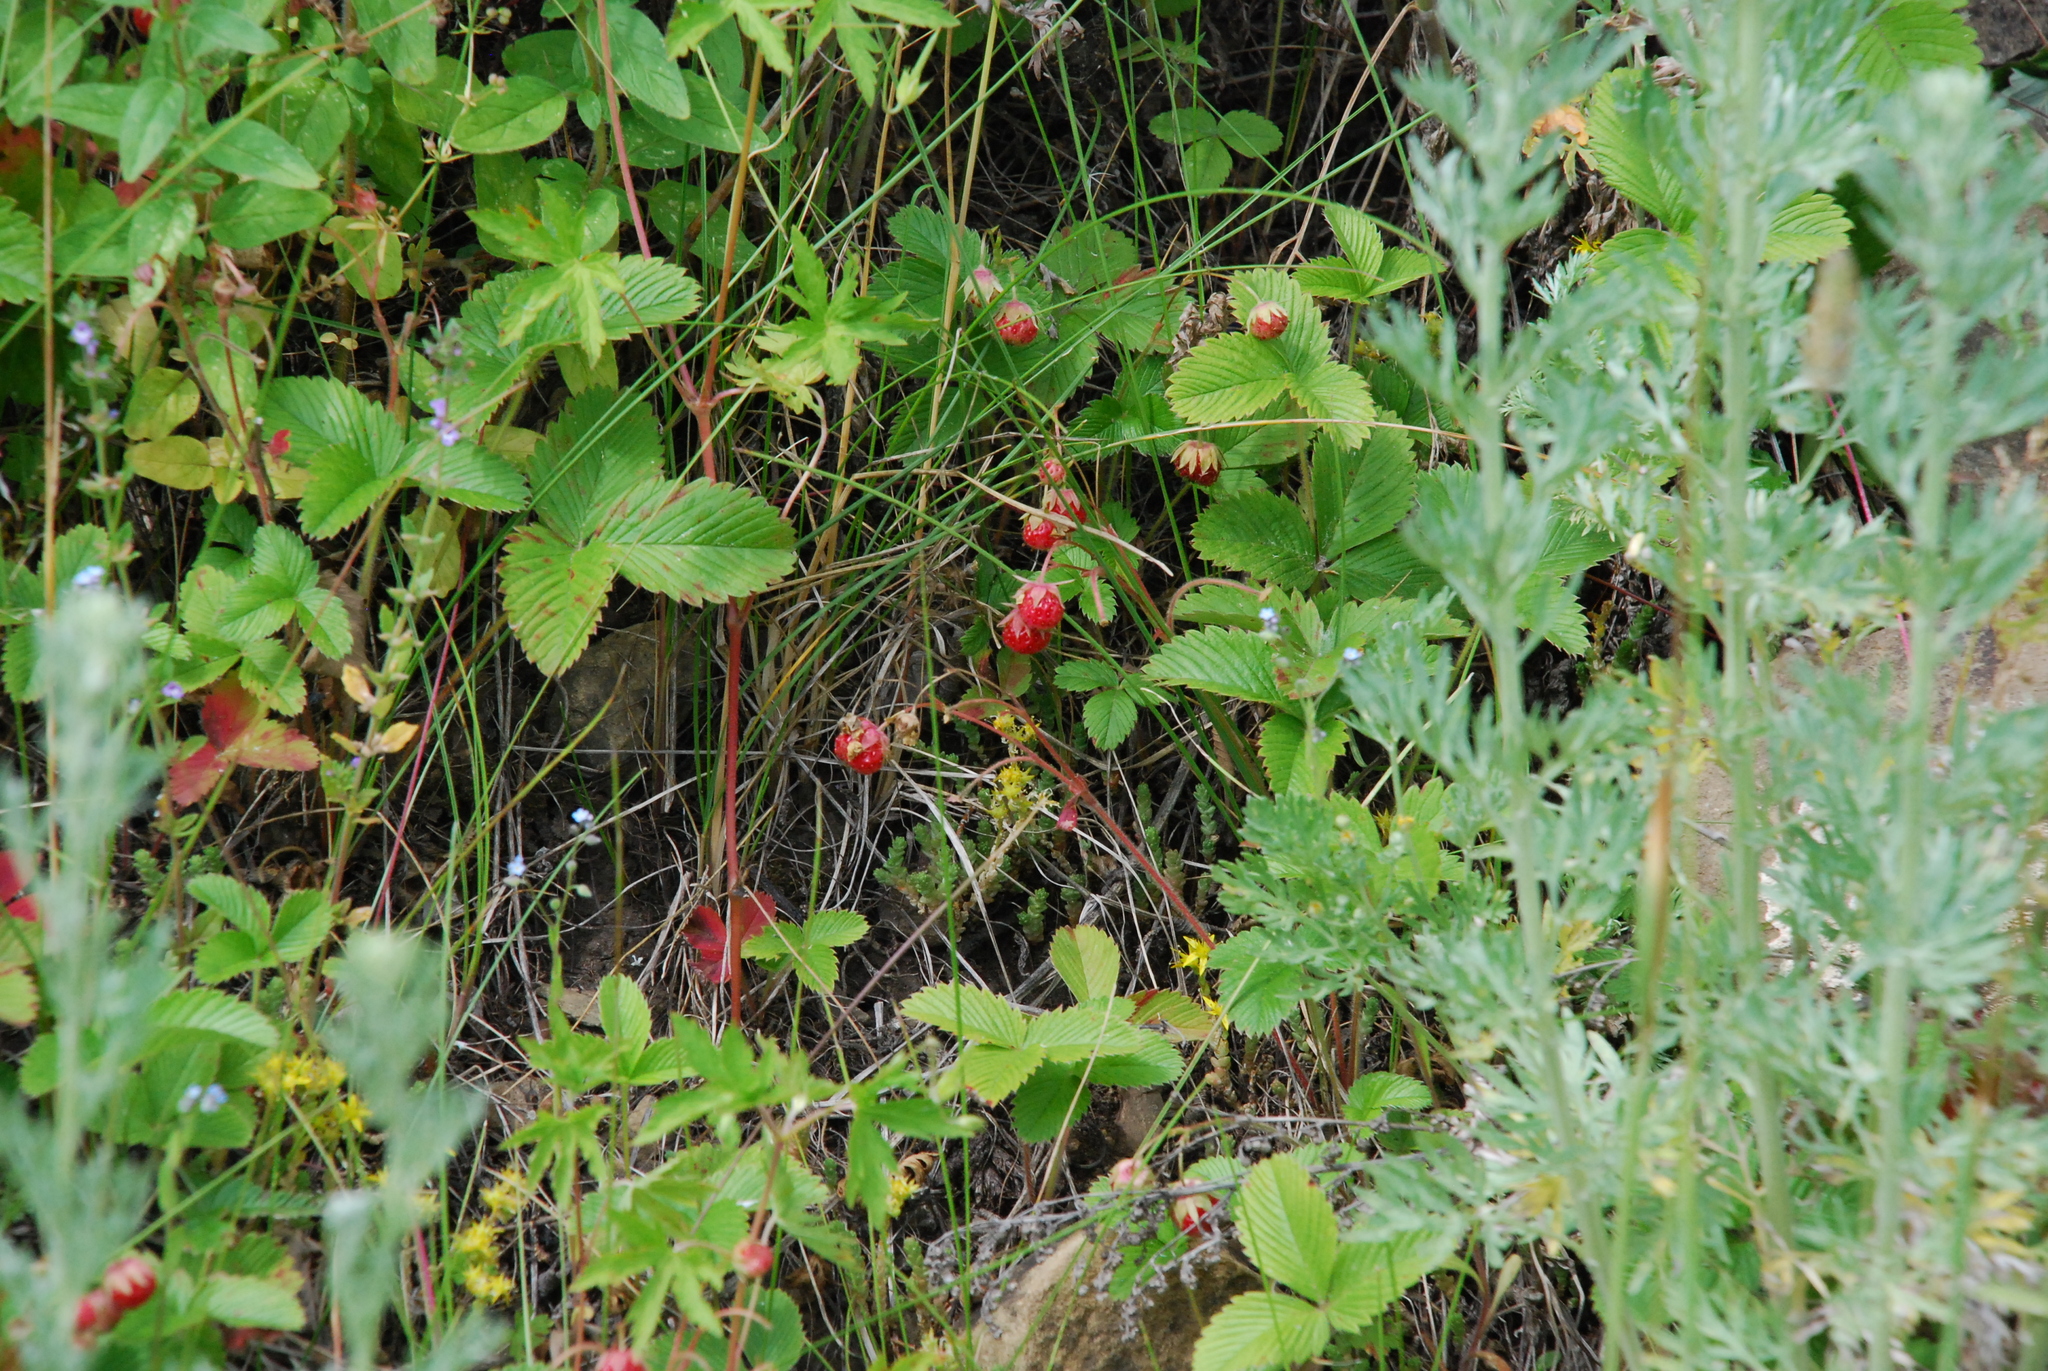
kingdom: Plantae
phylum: Tracheophyta
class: Magnoliopsida
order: Rosales
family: Rosaceae
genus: Fragaria
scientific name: Fragaria viridis
